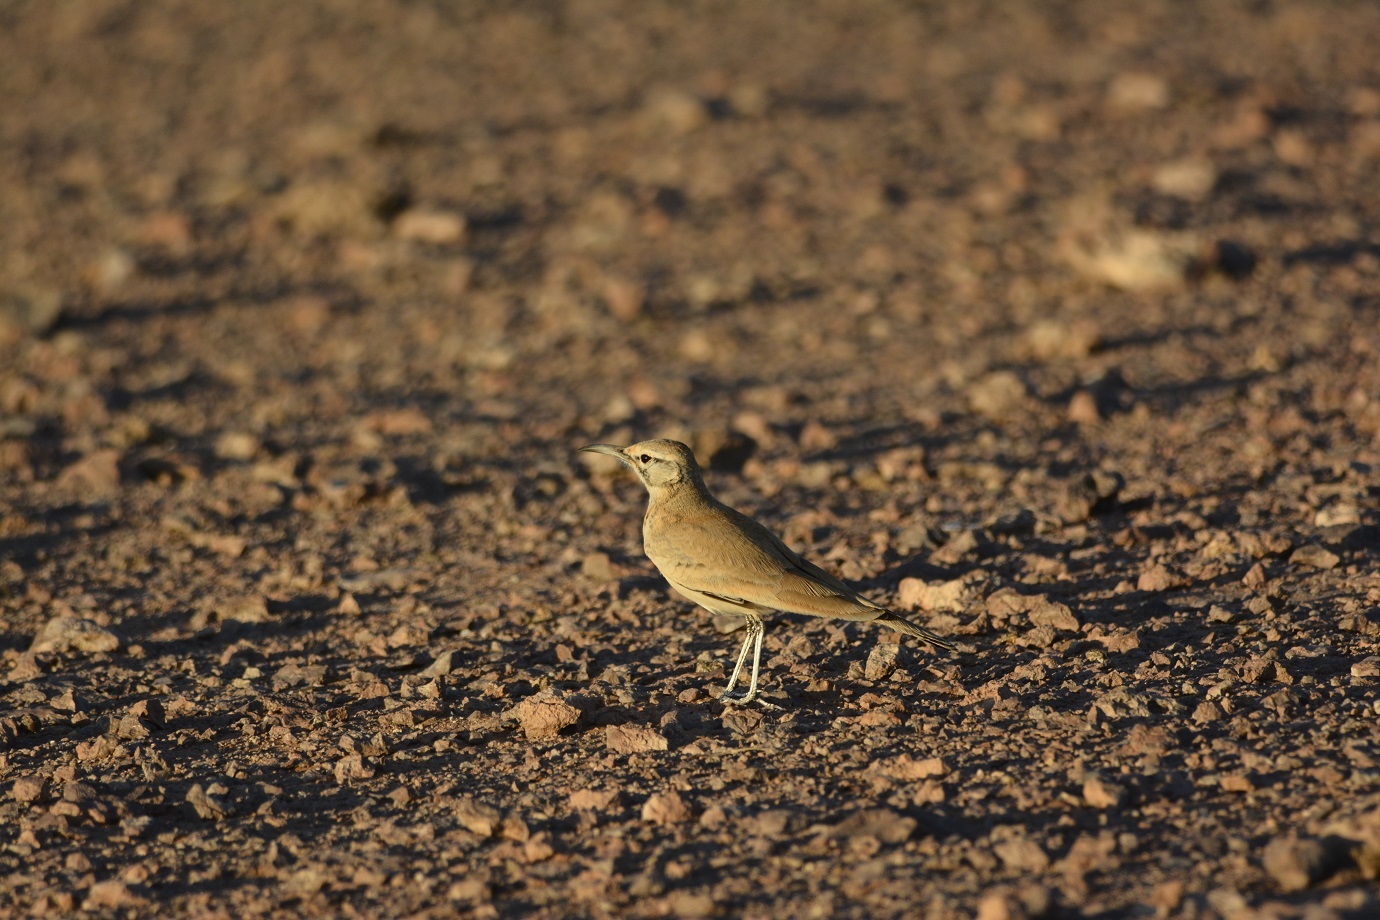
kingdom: Animalia
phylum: Chordata
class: Aves
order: Passeriformes
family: Alaudidae
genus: Alaemon
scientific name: Alaemon alaudipes
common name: Greater hoopoe-lark
